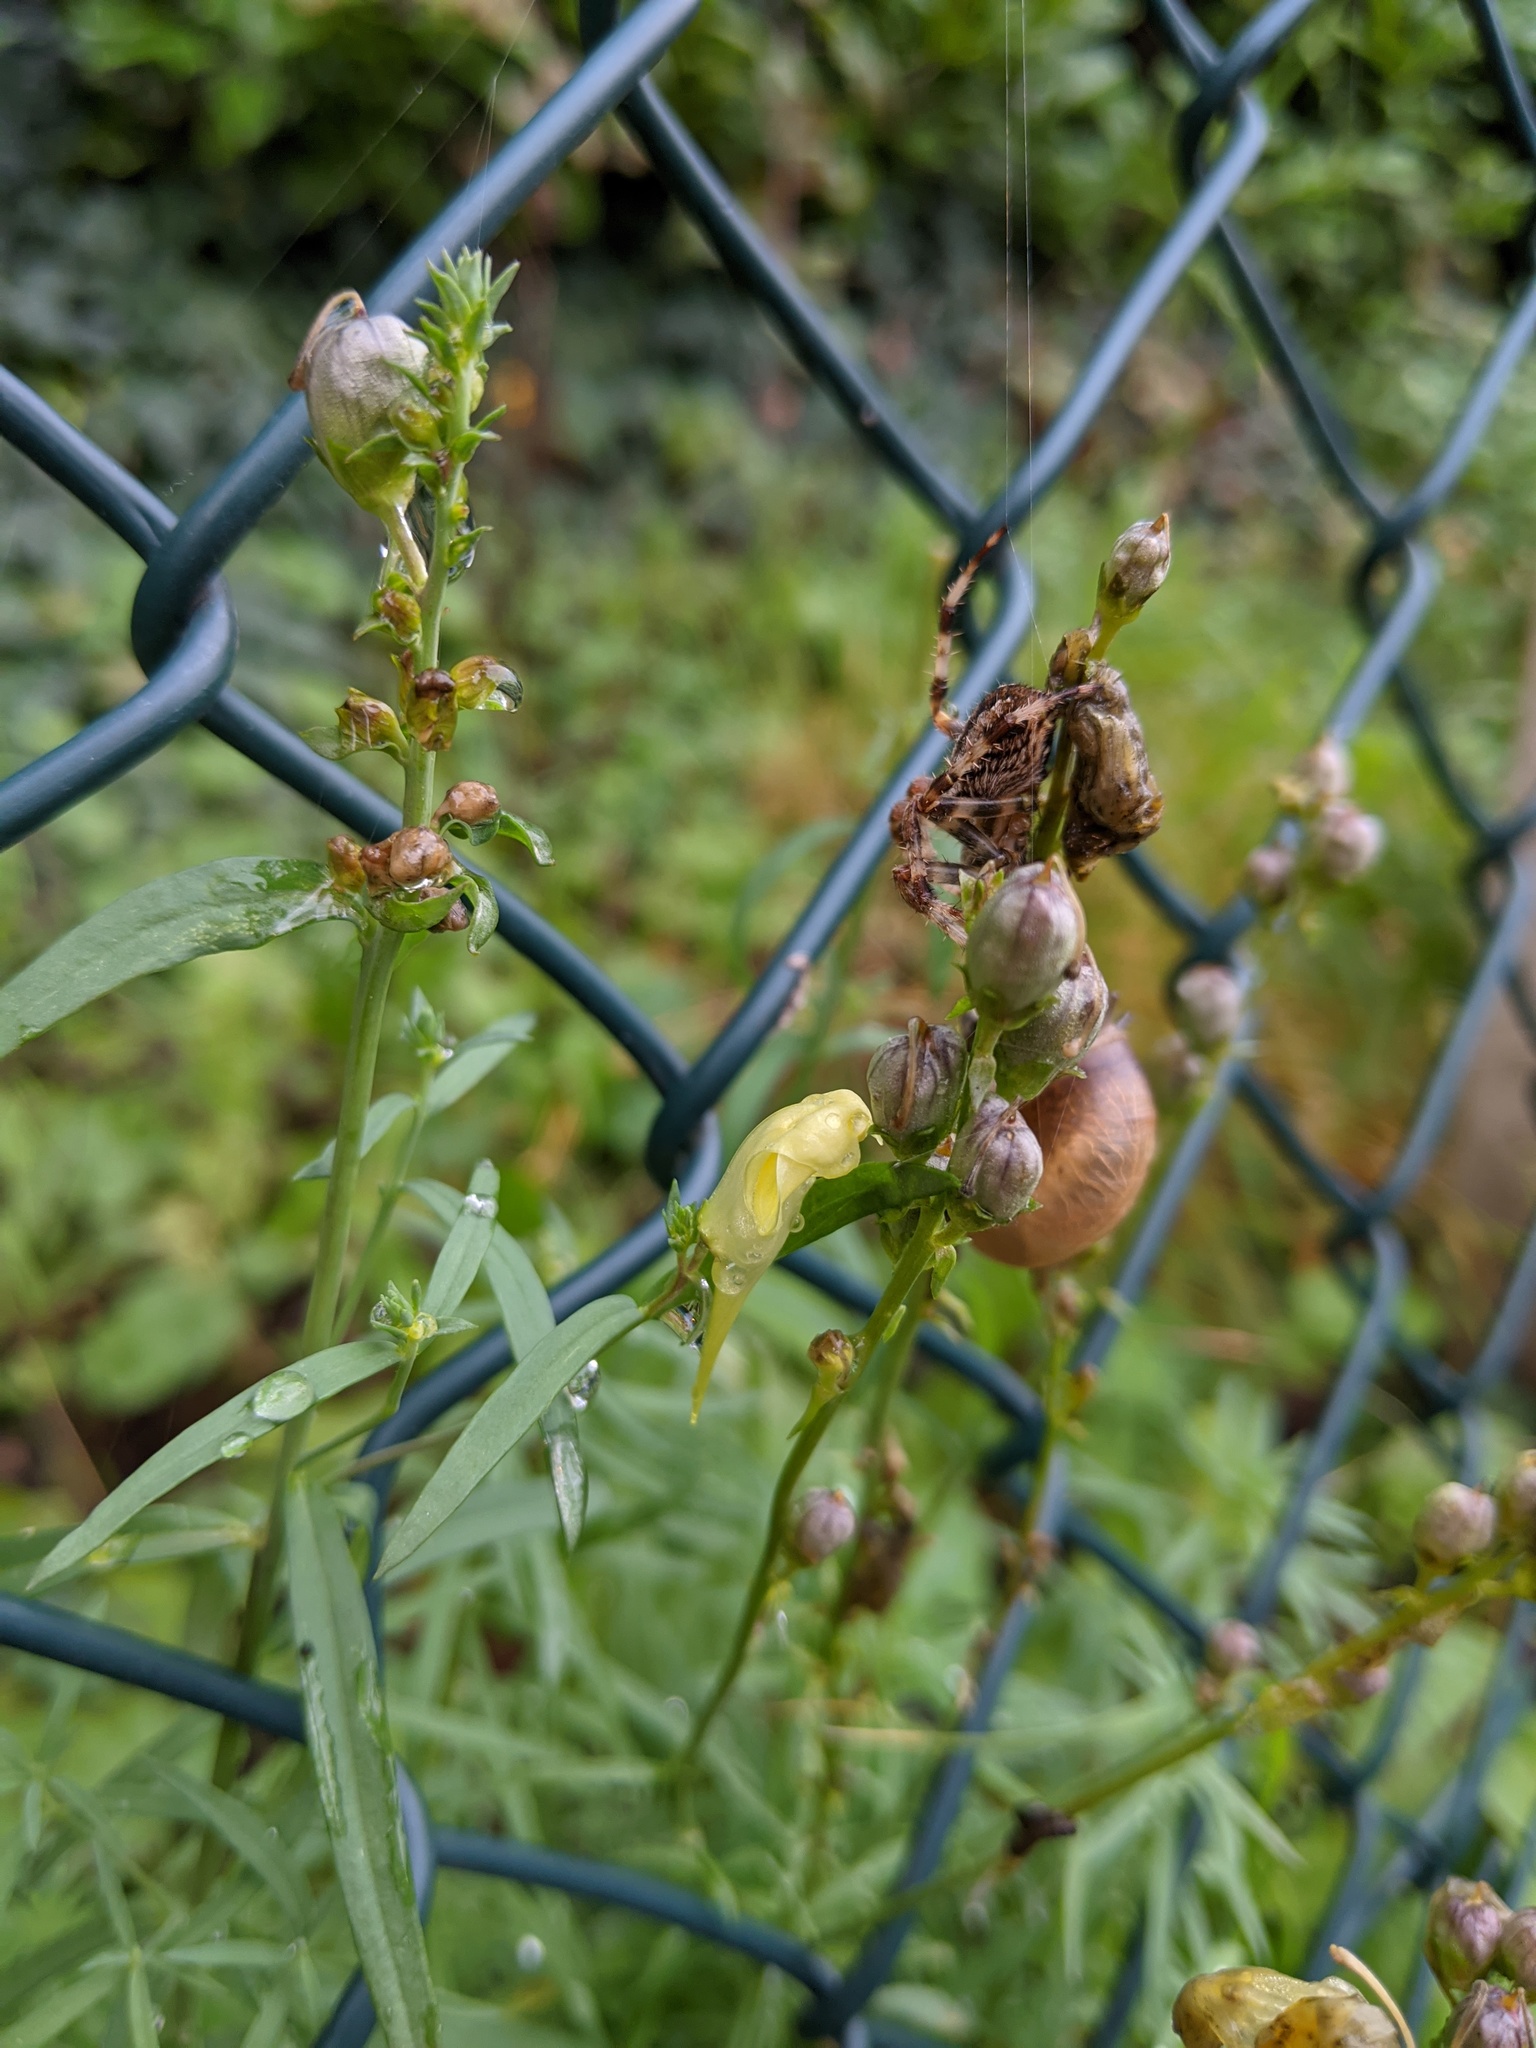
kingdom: Plantae
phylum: Tracheophyta
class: Magnoliopsida
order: Lamiales
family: Plantaginaceae
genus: Linaria
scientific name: Linaria vulgaris
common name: Butter and eggs
